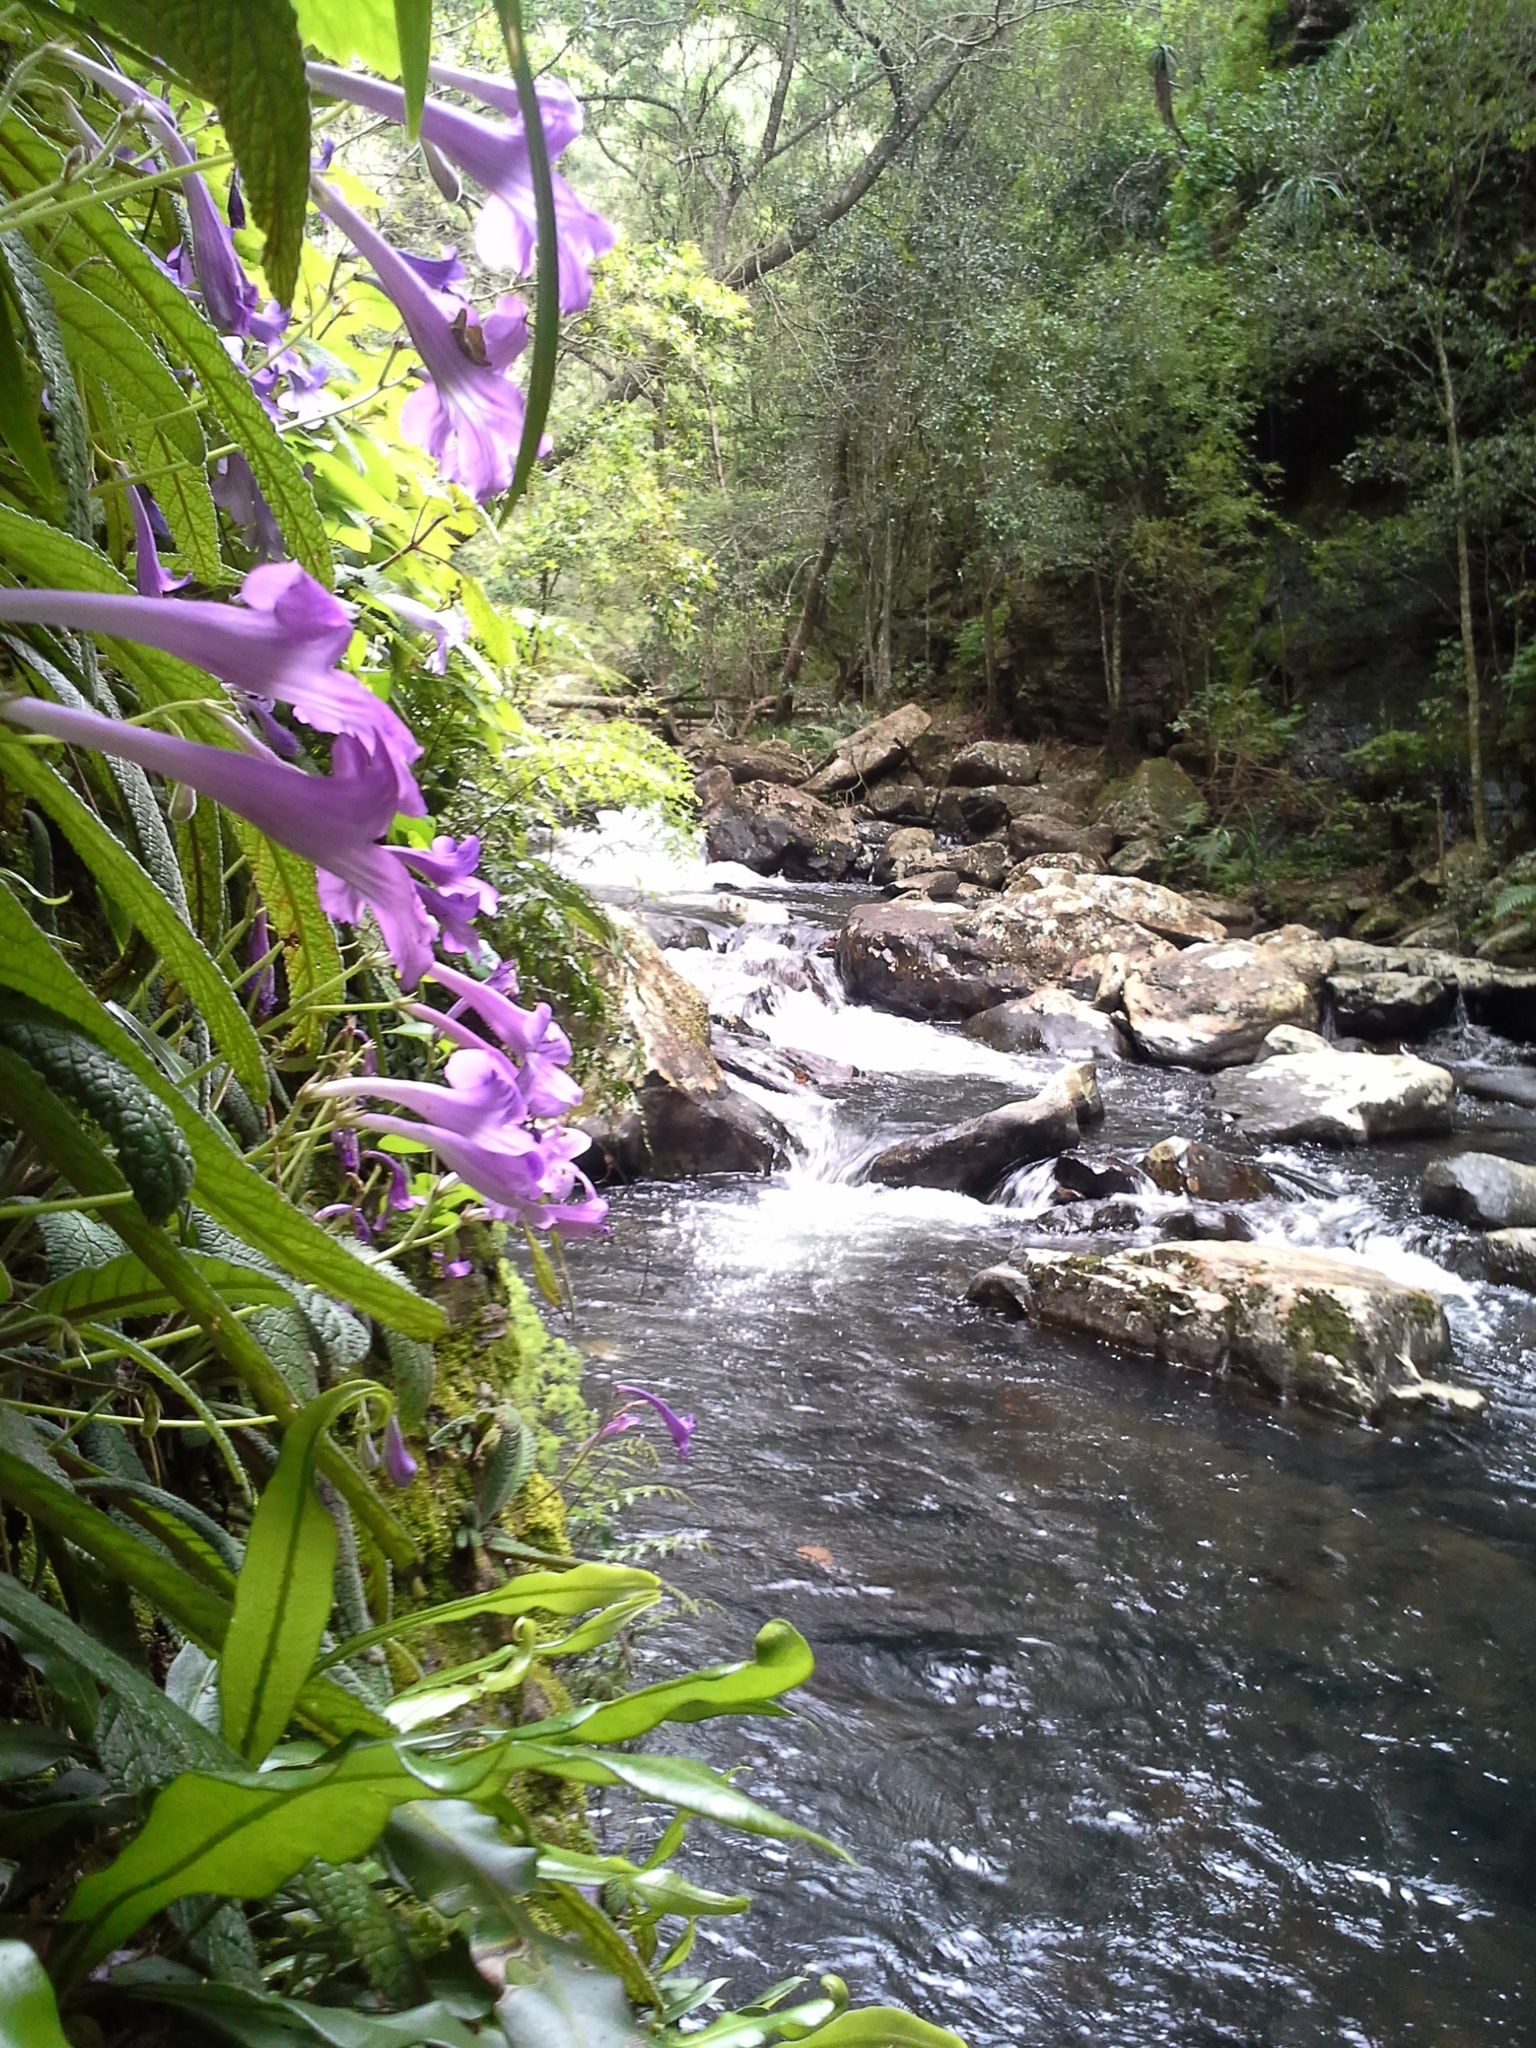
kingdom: Plantae
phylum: Tracheophyta
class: Magnoliopsida
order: Lamiales
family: Gesneriaceae
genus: Streptocarpus
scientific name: Streptocarpus cyaneus
